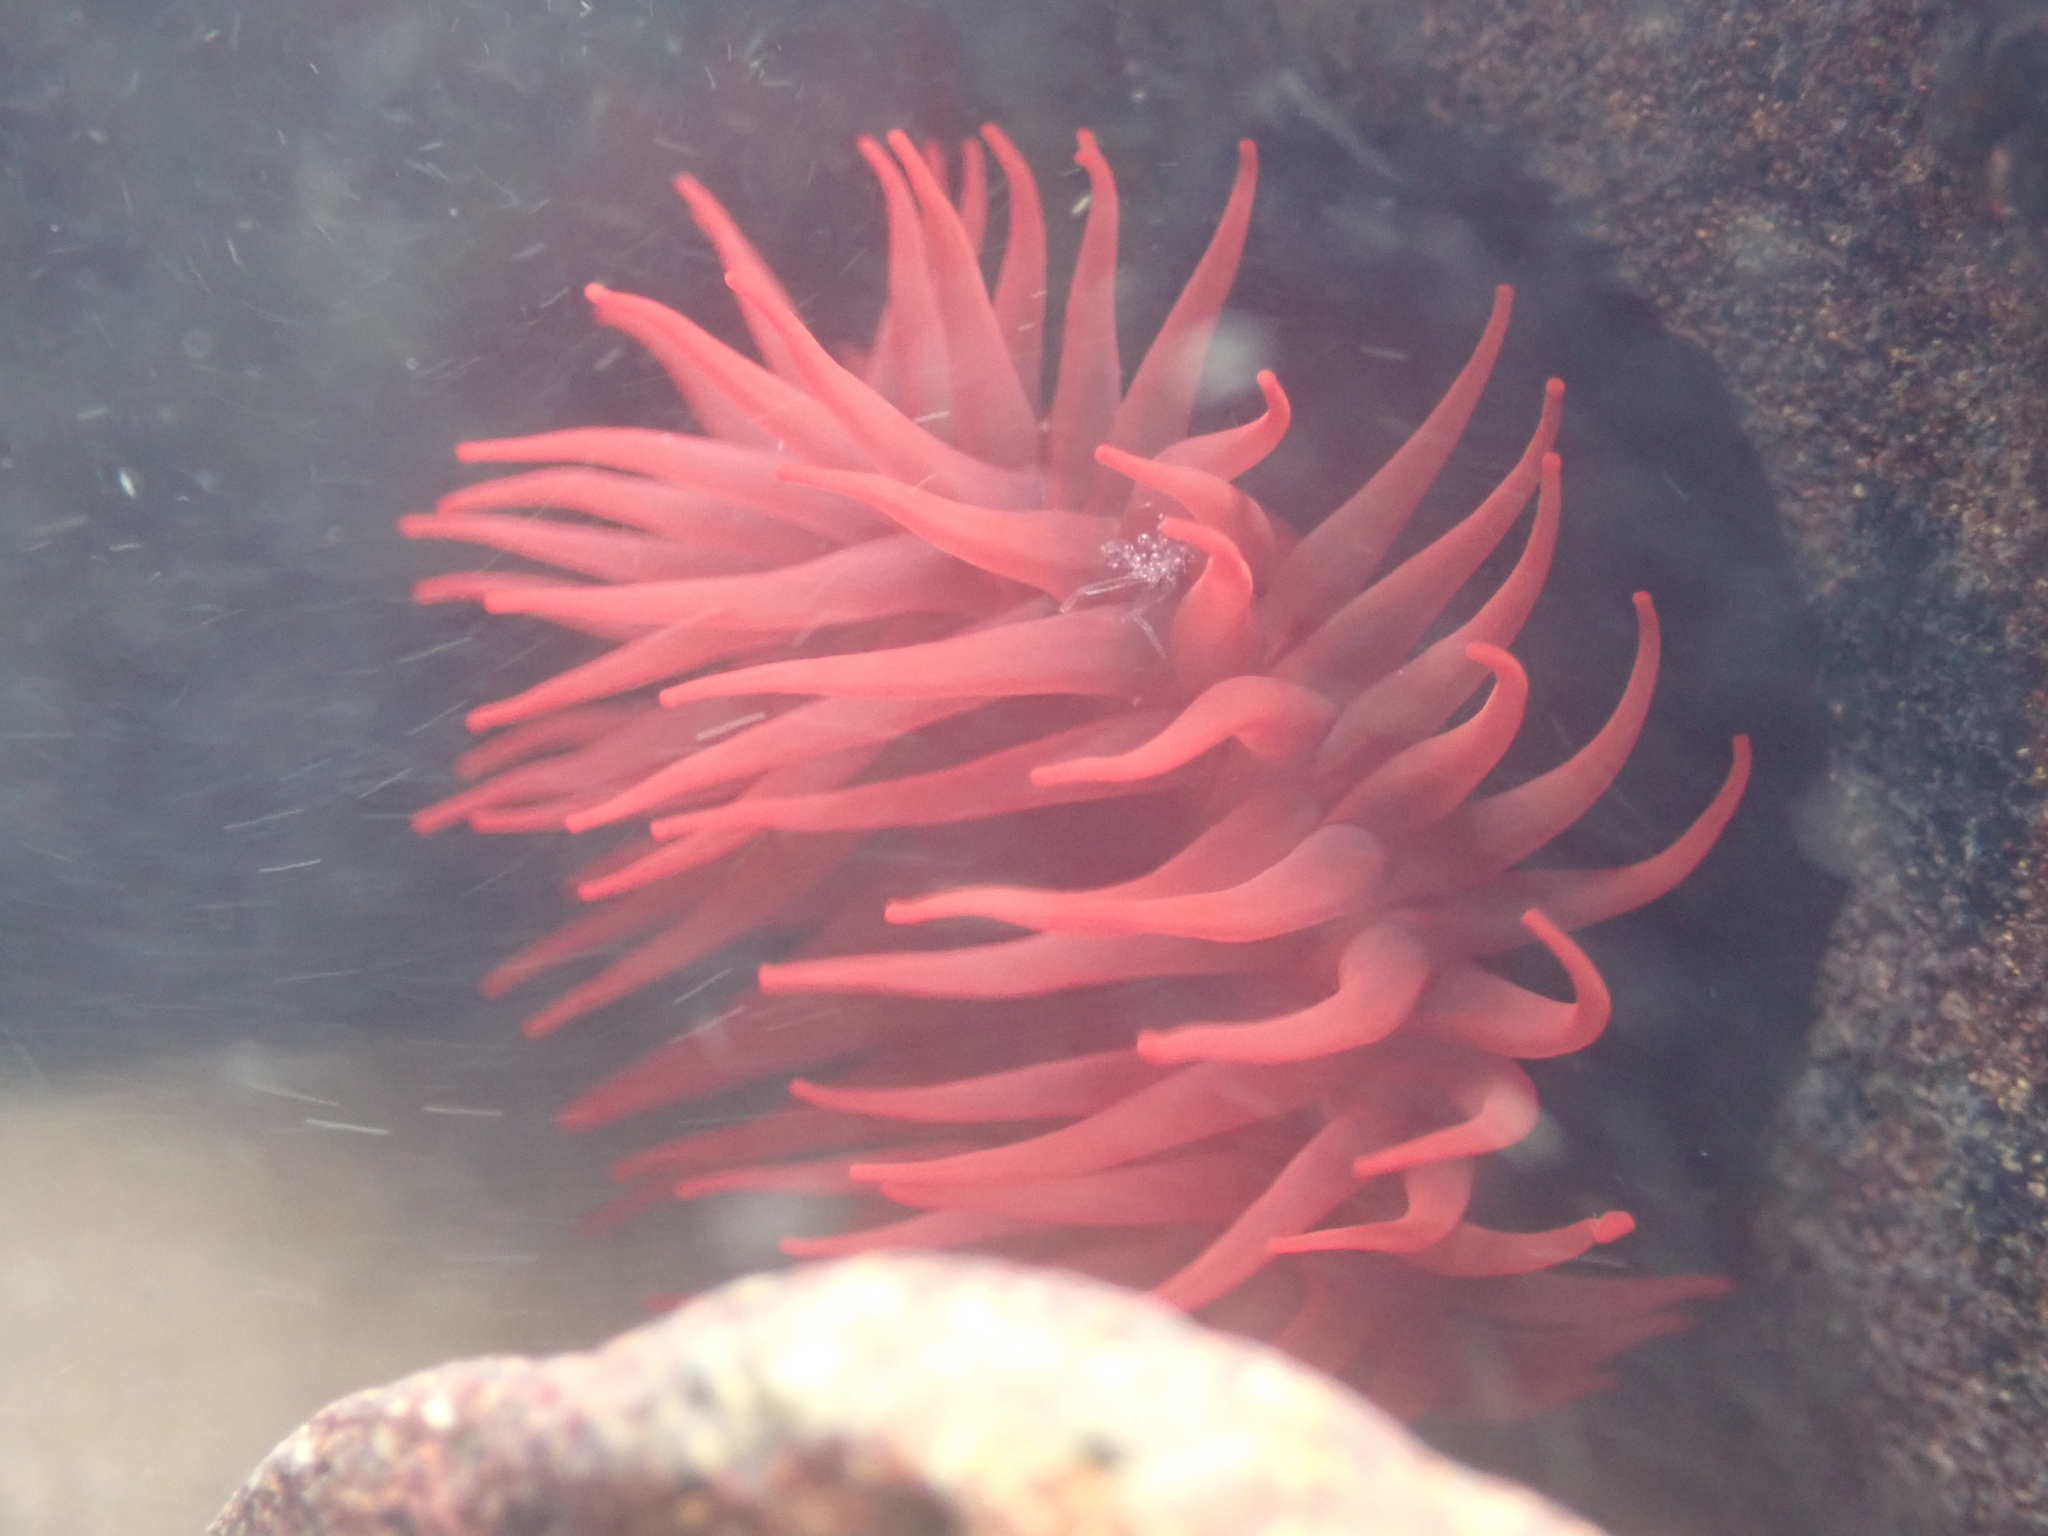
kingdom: Animalia
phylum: Cnidaria
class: Anthozoa
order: Actiniaria
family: Actiniidae
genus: Actinia
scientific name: Actinia tenebrosa
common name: Waratah anemone
